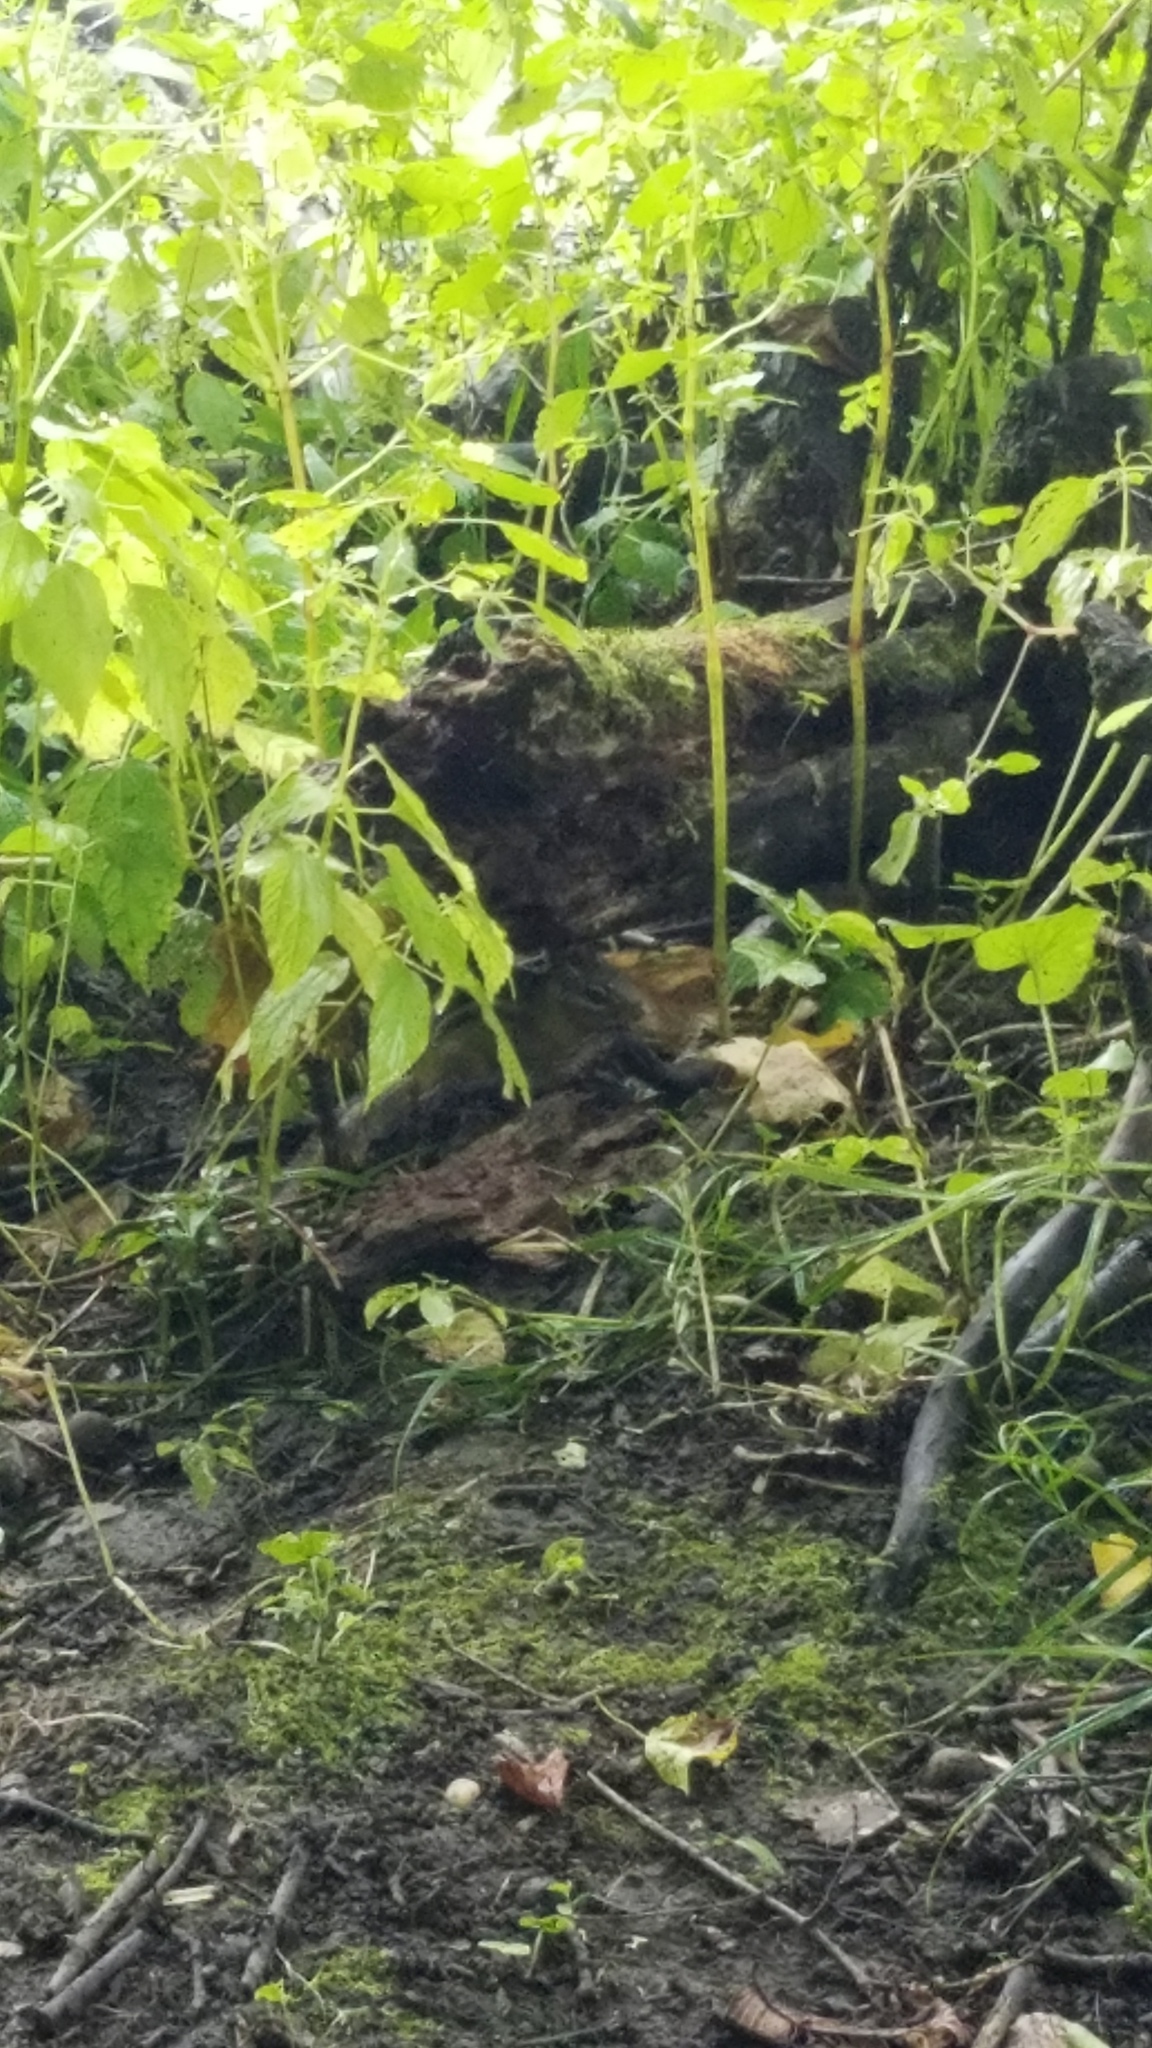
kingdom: Animalia
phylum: Chordata
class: Mammalia
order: Rodentia
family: Sciuridae
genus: Tamias
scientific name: Tamias striatus
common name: Eastern chipmunk
